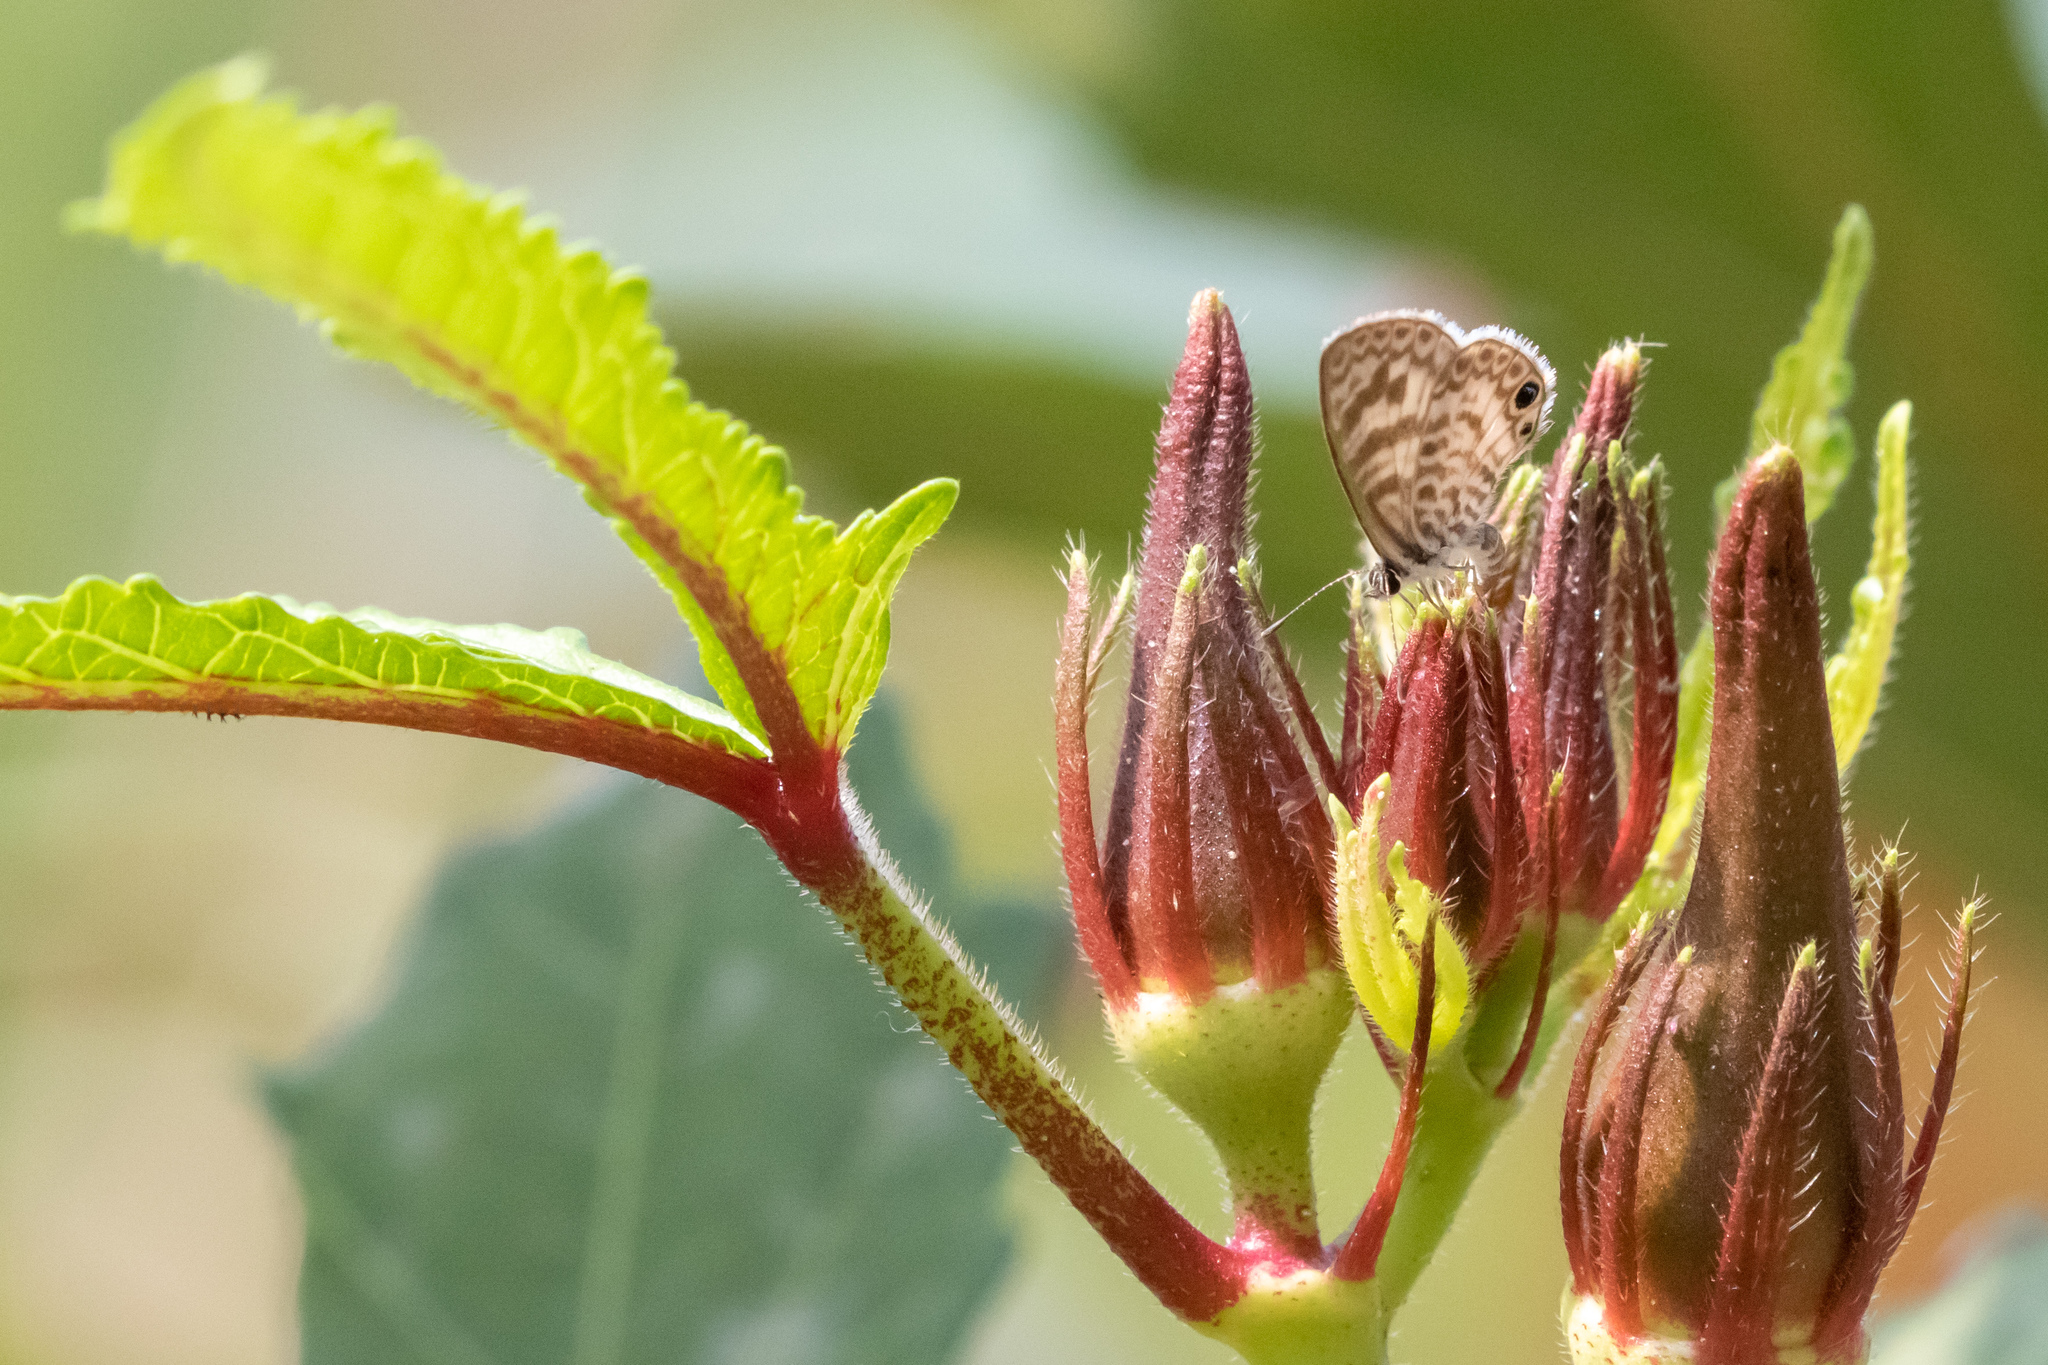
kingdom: Animalia
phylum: Arthropoda
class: Insecta
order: Lepidoptera
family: Lycaenidae
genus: Leptotes
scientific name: Leptotes cassius
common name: Cassius blue
